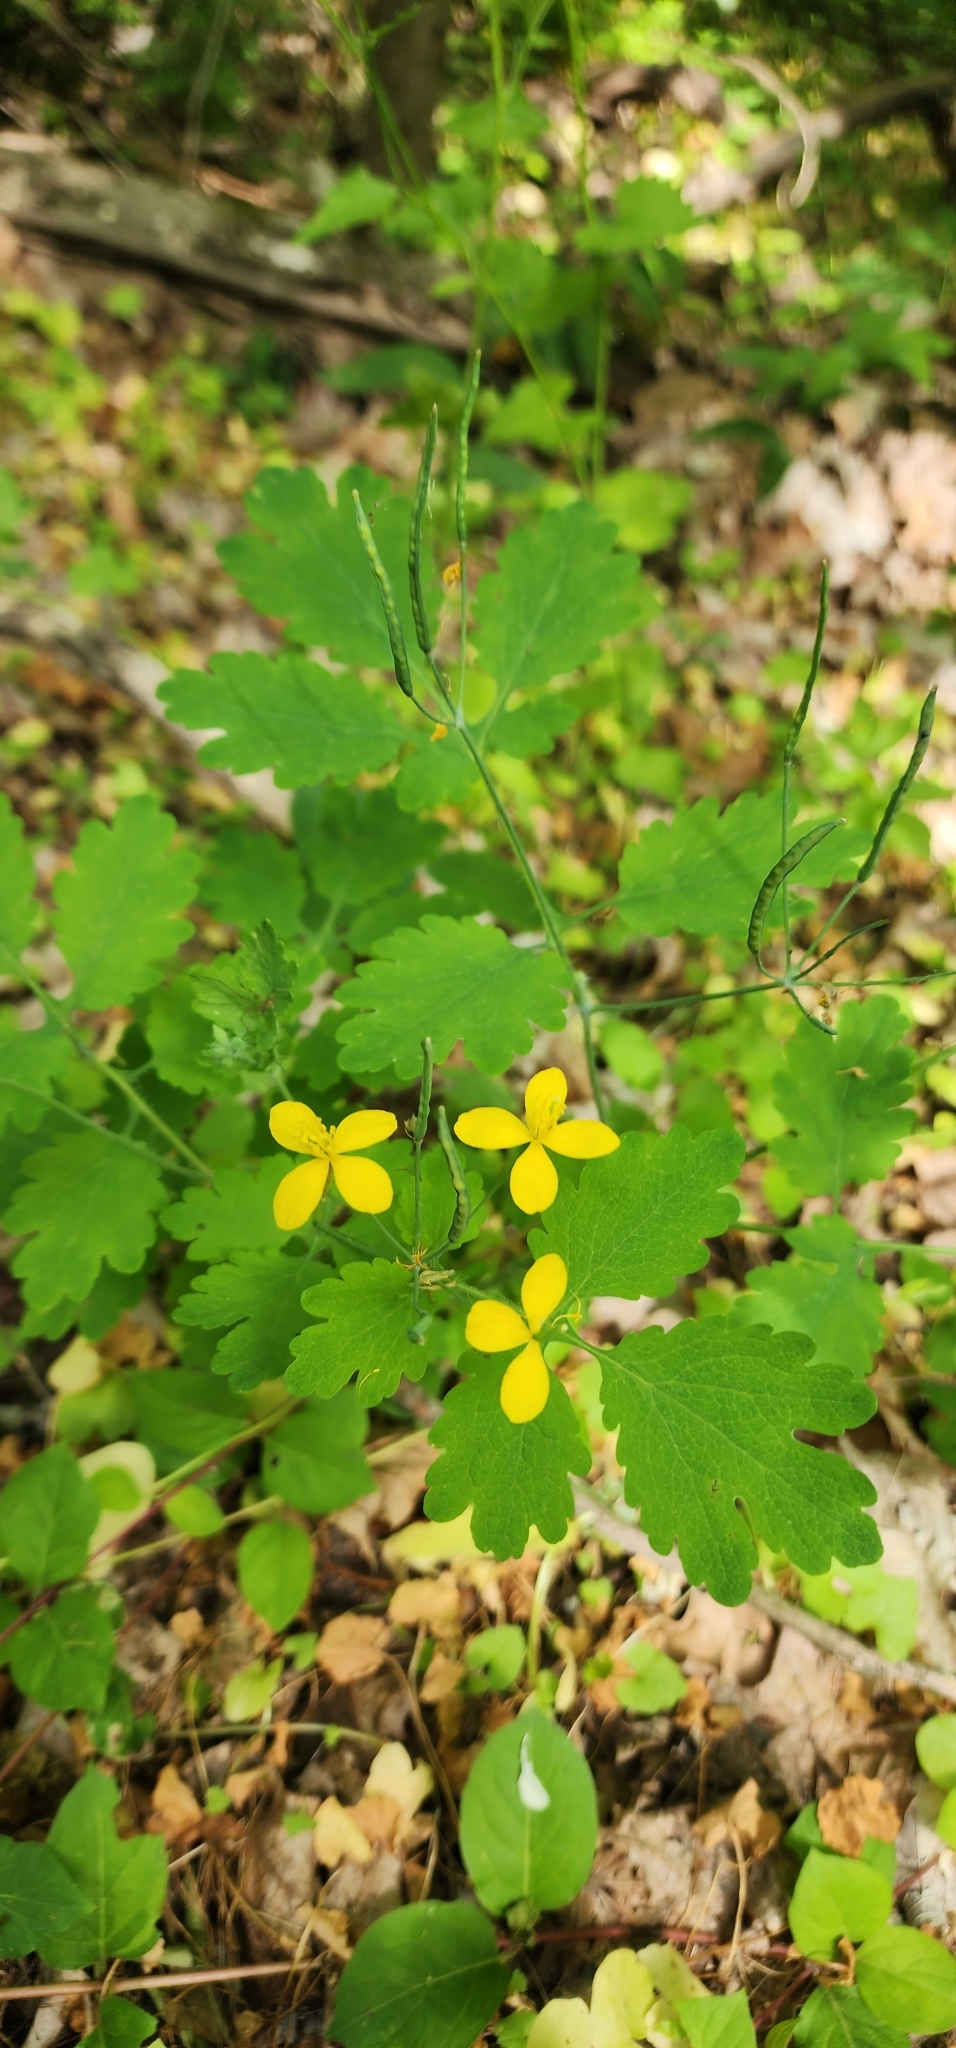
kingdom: Plantae
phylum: Tracheophyta
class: Magnoliopsida
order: Ranunculales
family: Papaveraceae
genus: Chelidonium
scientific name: Chelidonium majus
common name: Greater celandine
